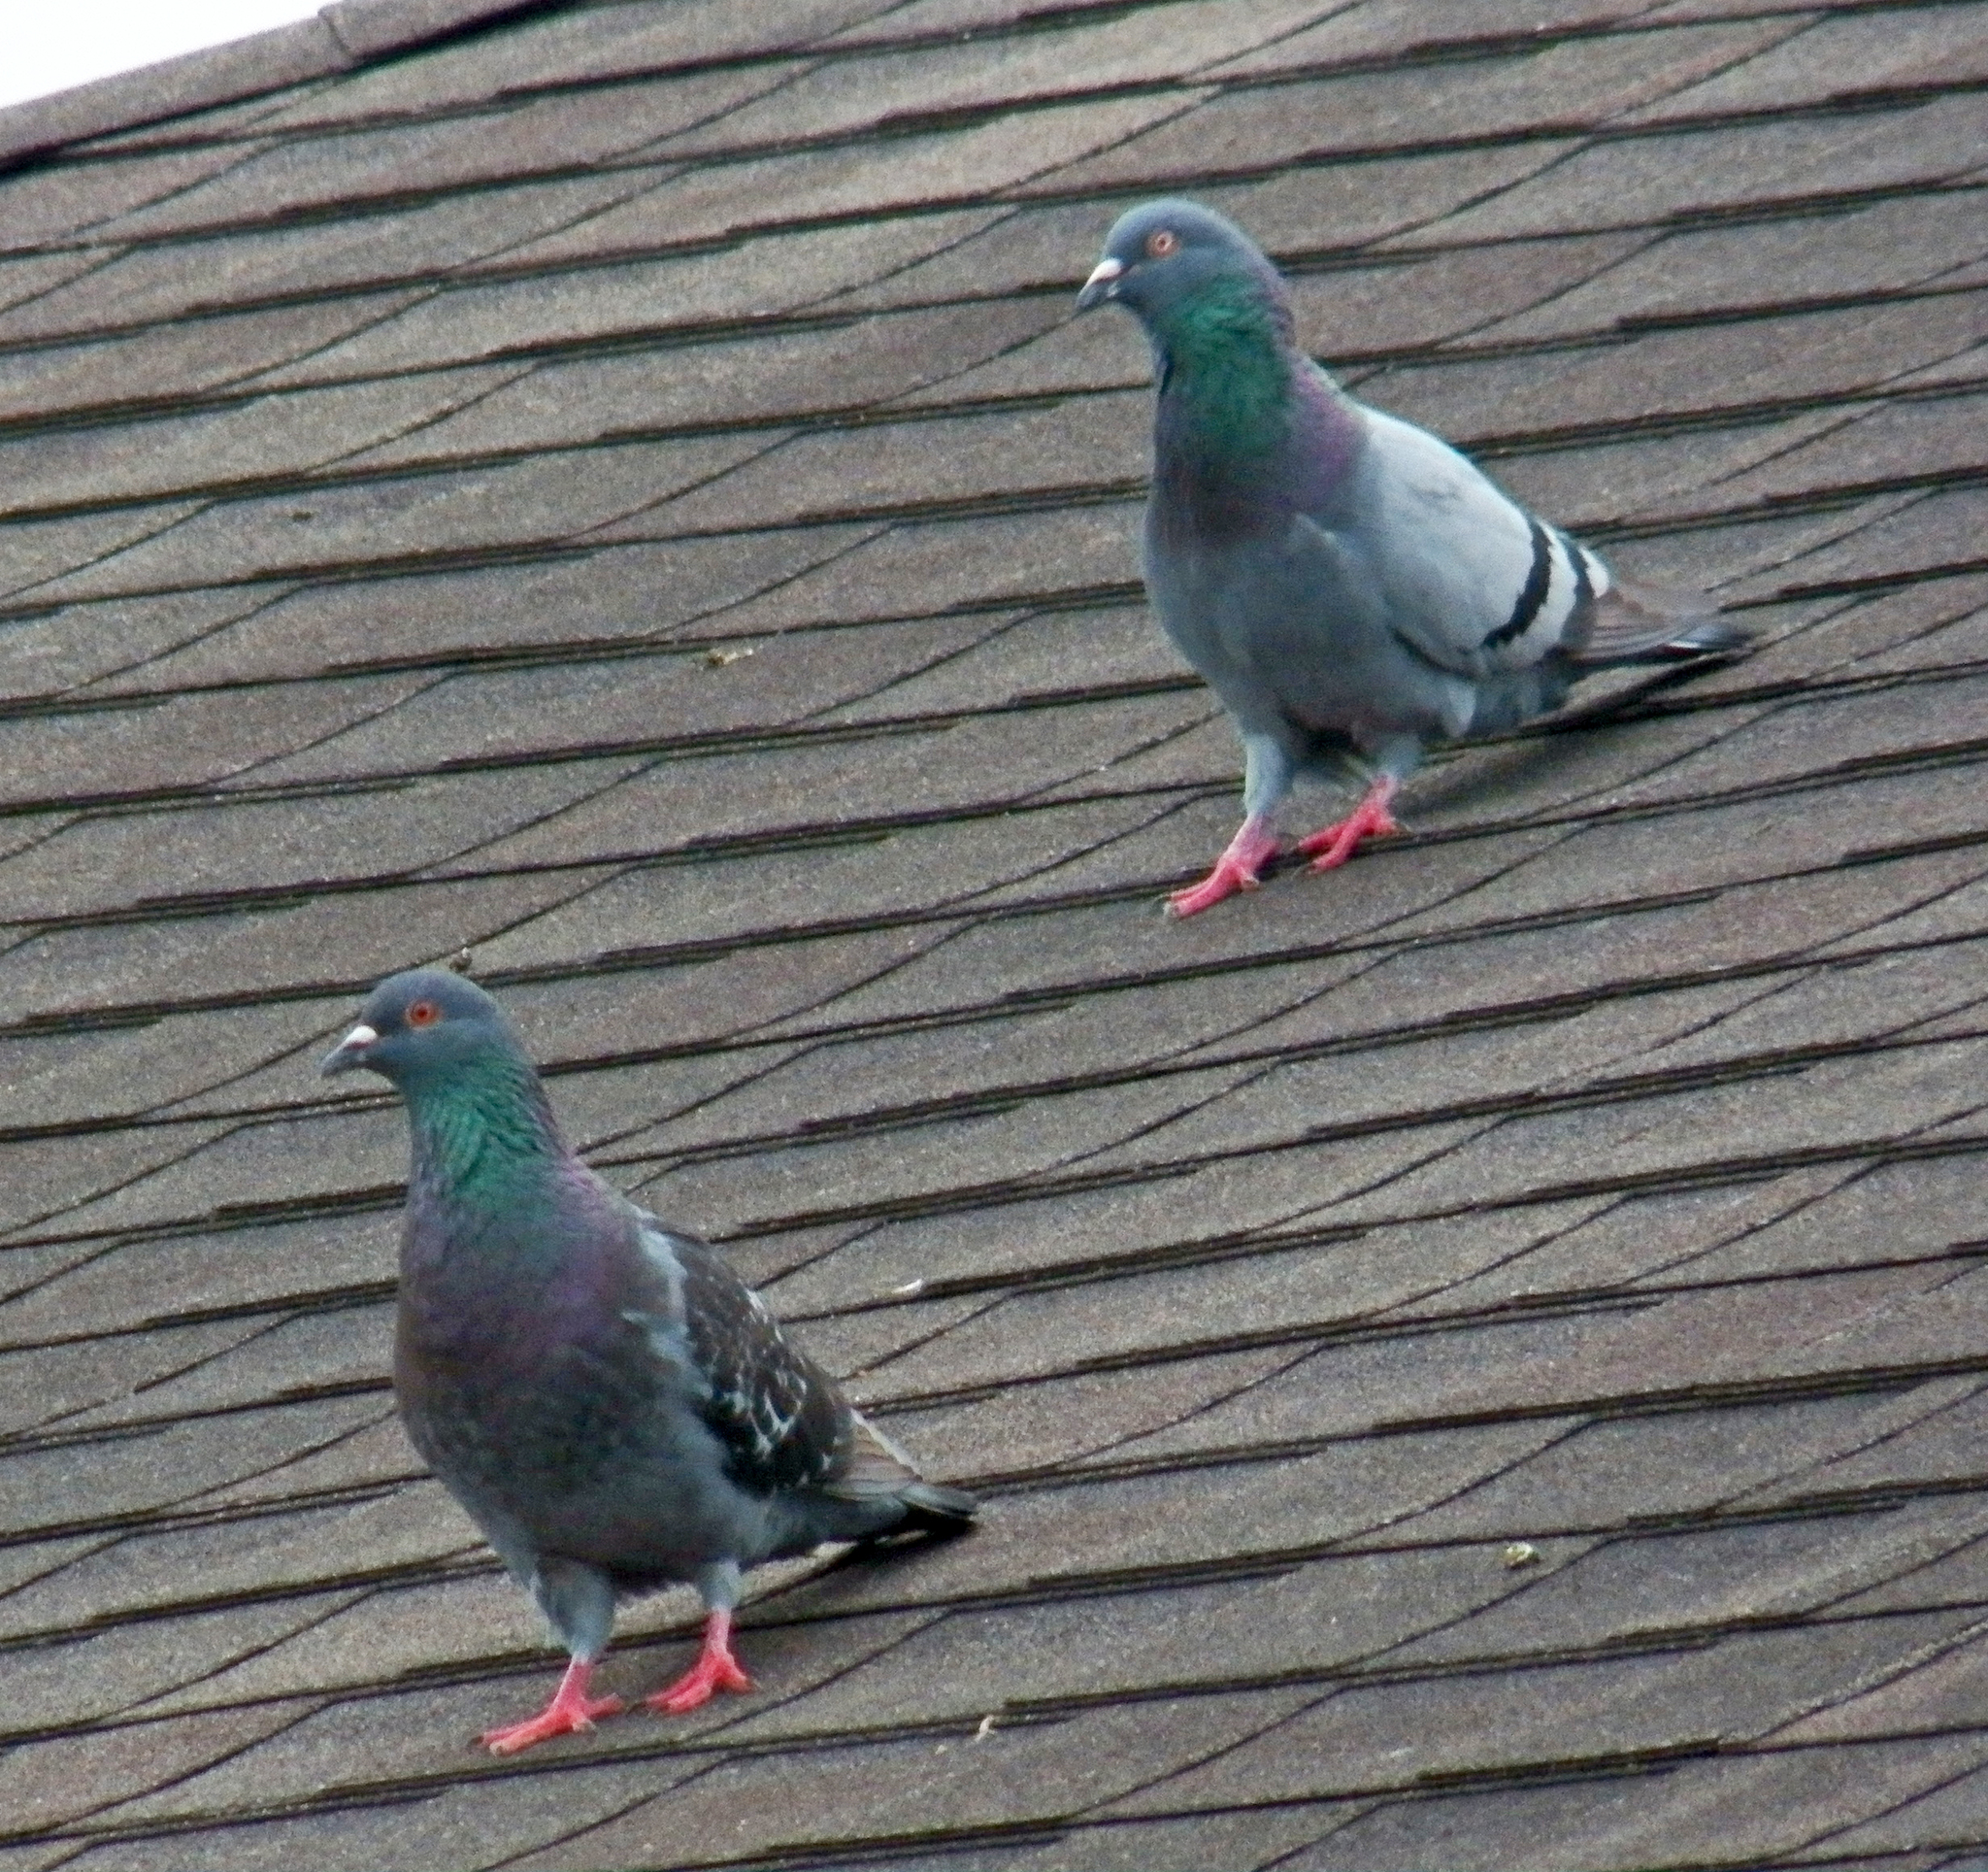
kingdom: Animalia
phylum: Chordata
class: Aves
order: Columbiformes
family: Columbidae
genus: Columba
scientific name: Columba livia
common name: Rock pigeon
